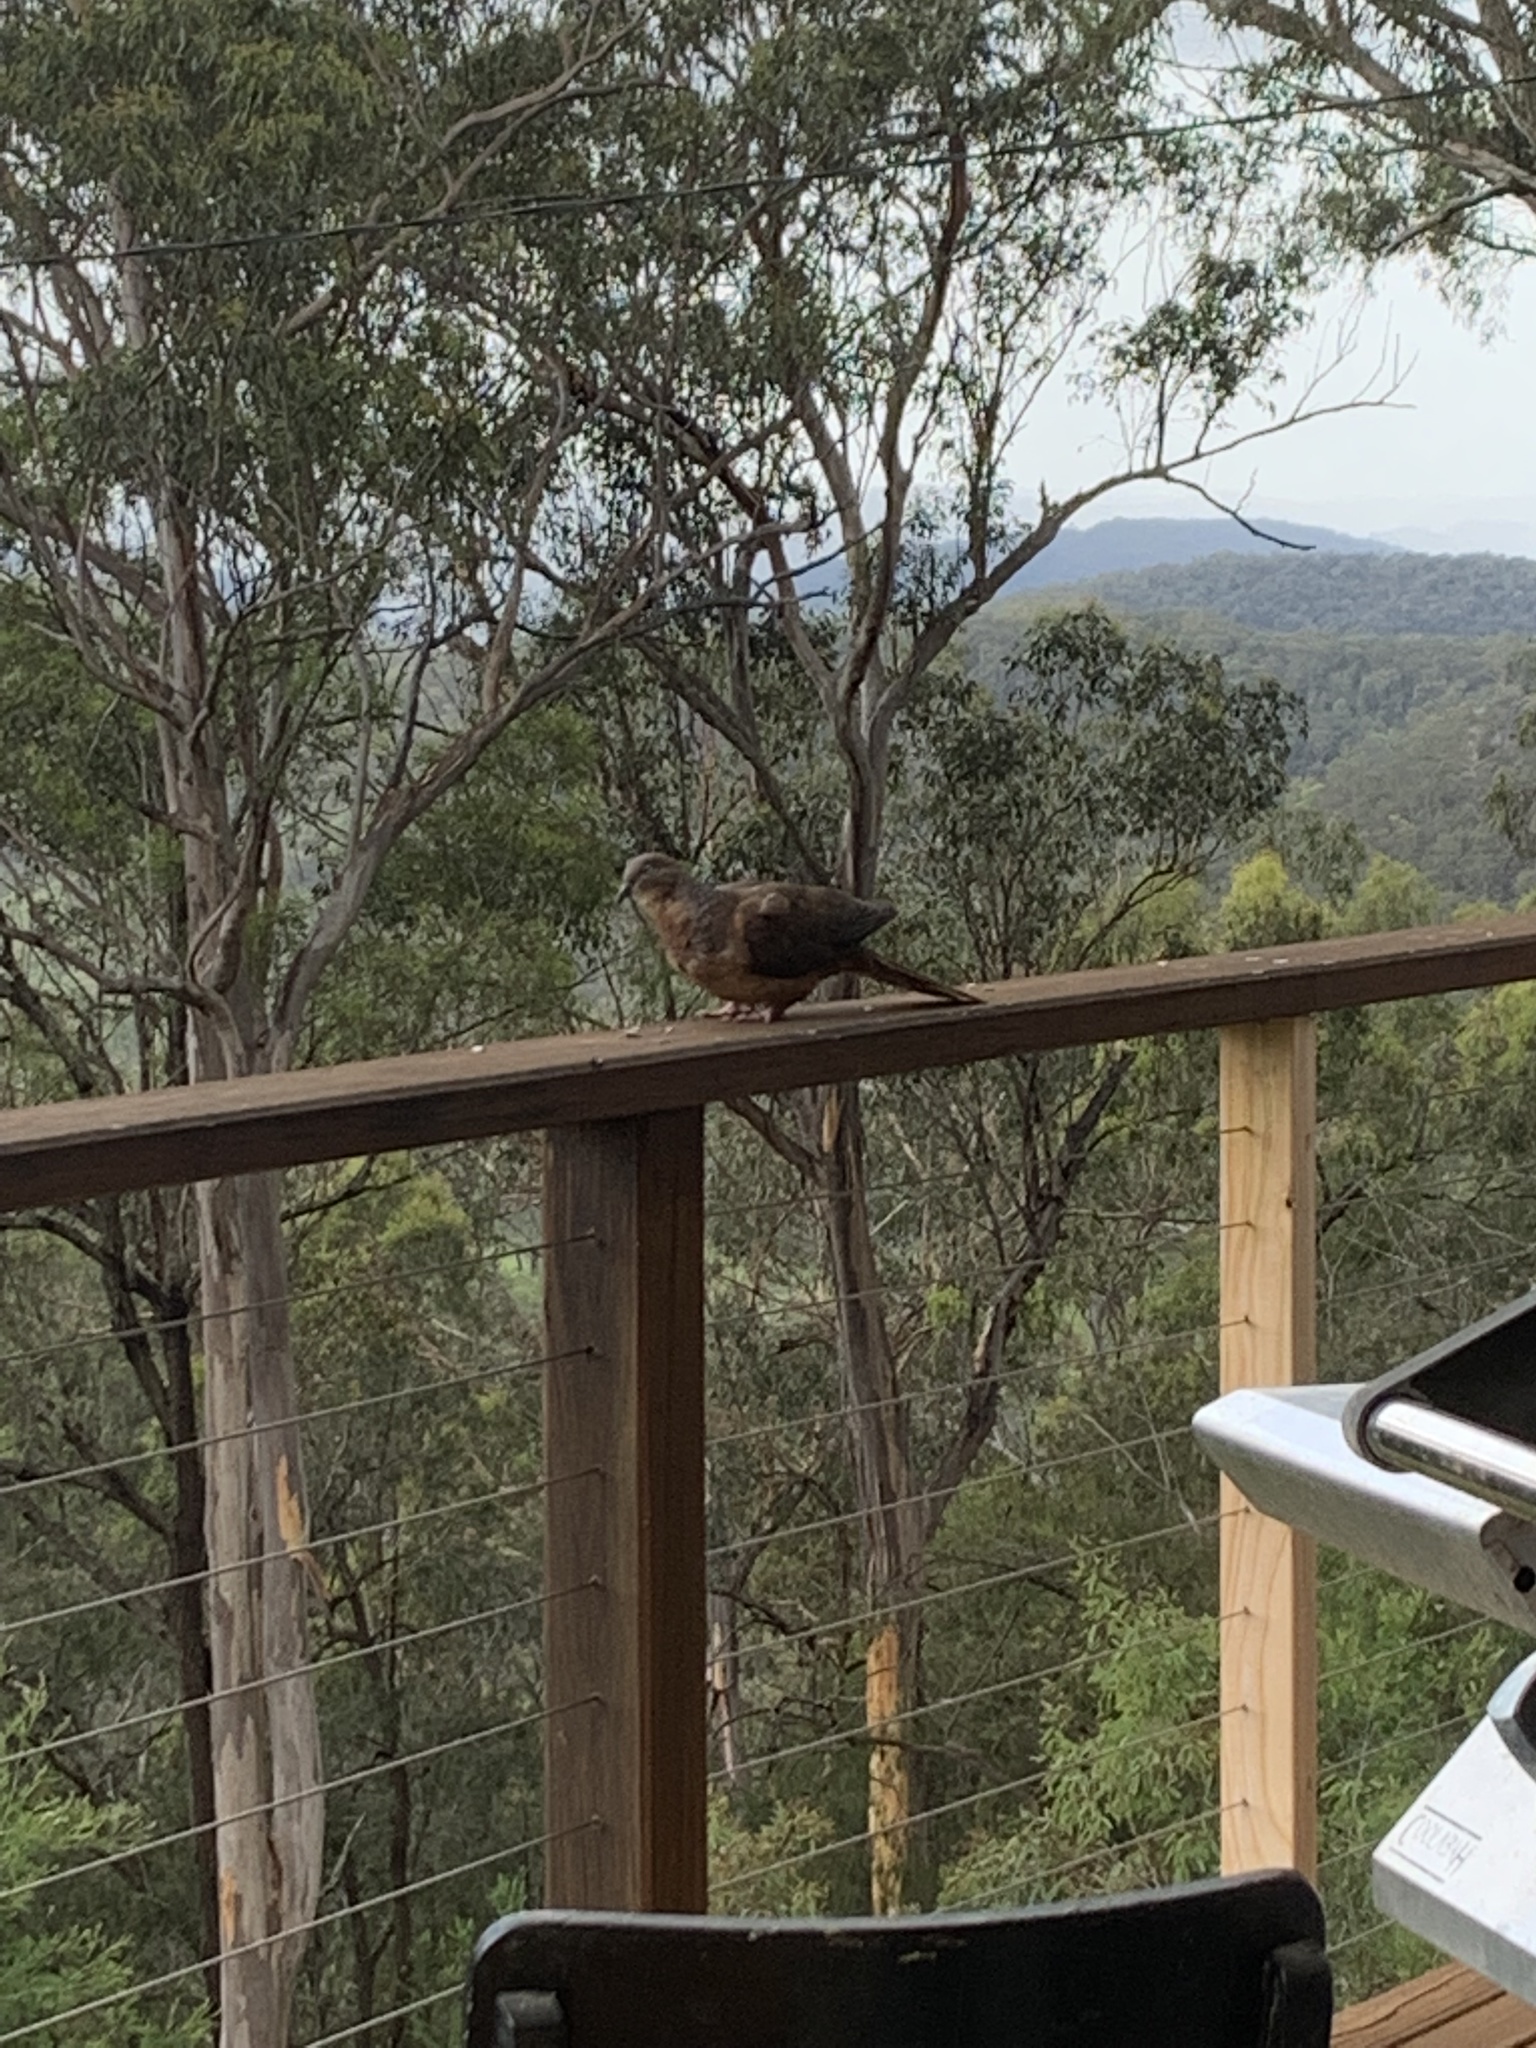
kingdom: Animalia
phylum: Chordata
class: Aves
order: Columbiformes
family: Columbidae
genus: Macropygia
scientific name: Macropygia phasianella
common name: Brown cuckoo-dove
